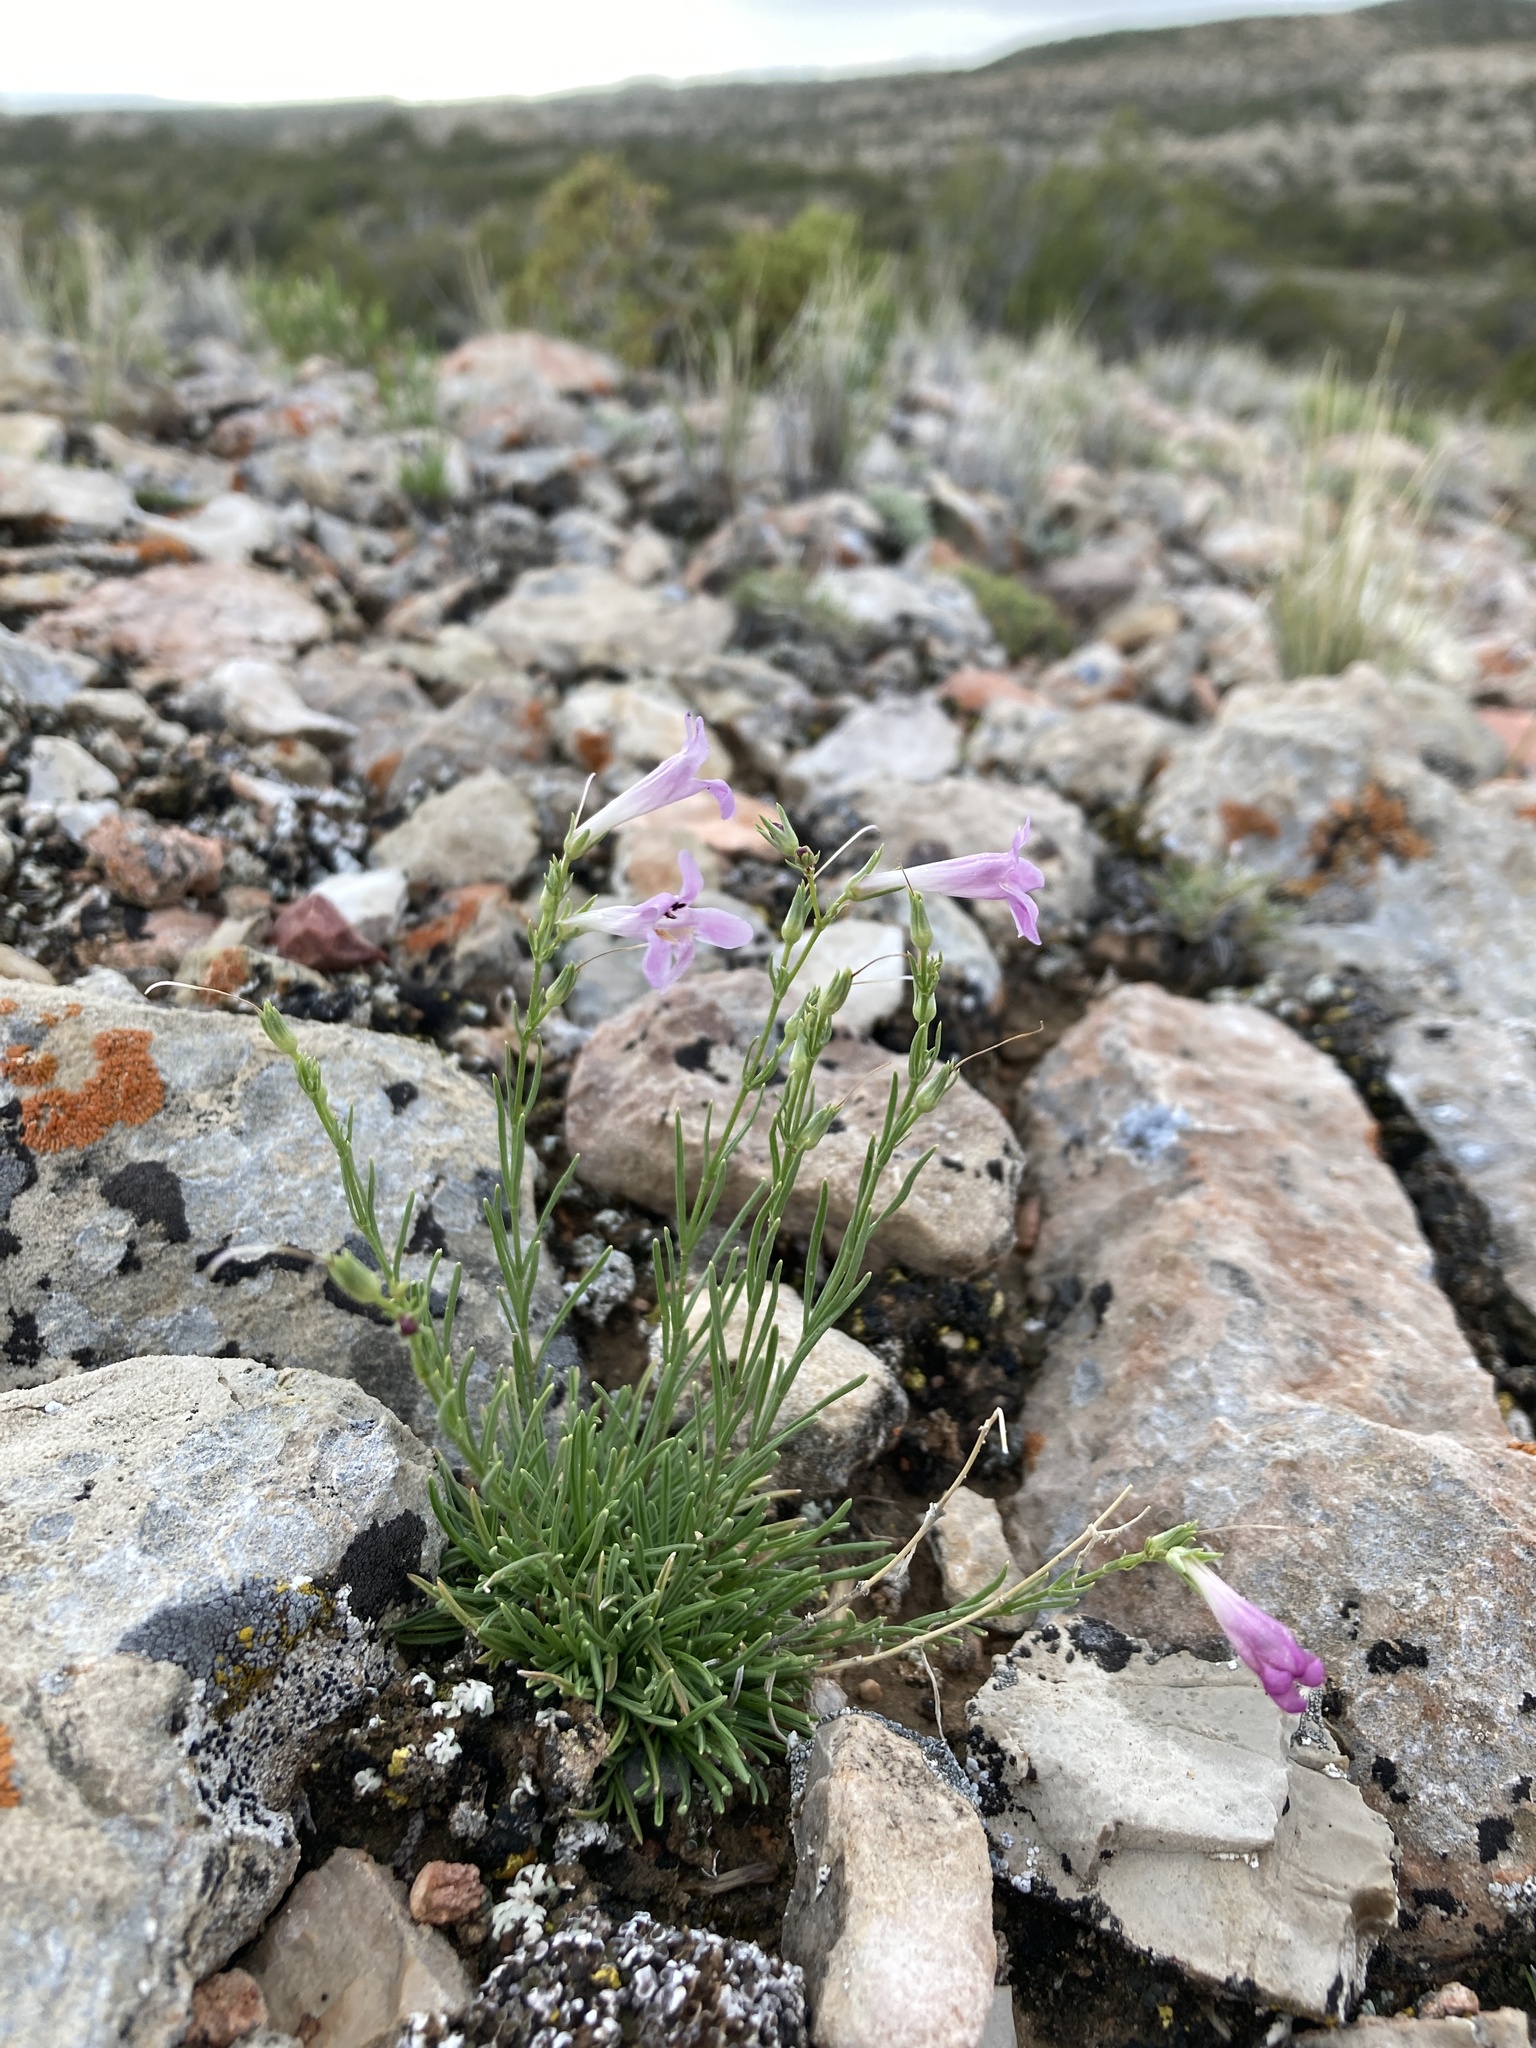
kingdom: Plantae
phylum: Tracheophyta
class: Magnoliopsida
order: Lamiales
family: Plantaginaceae
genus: Penstemon
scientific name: Penstemon laricifolius
